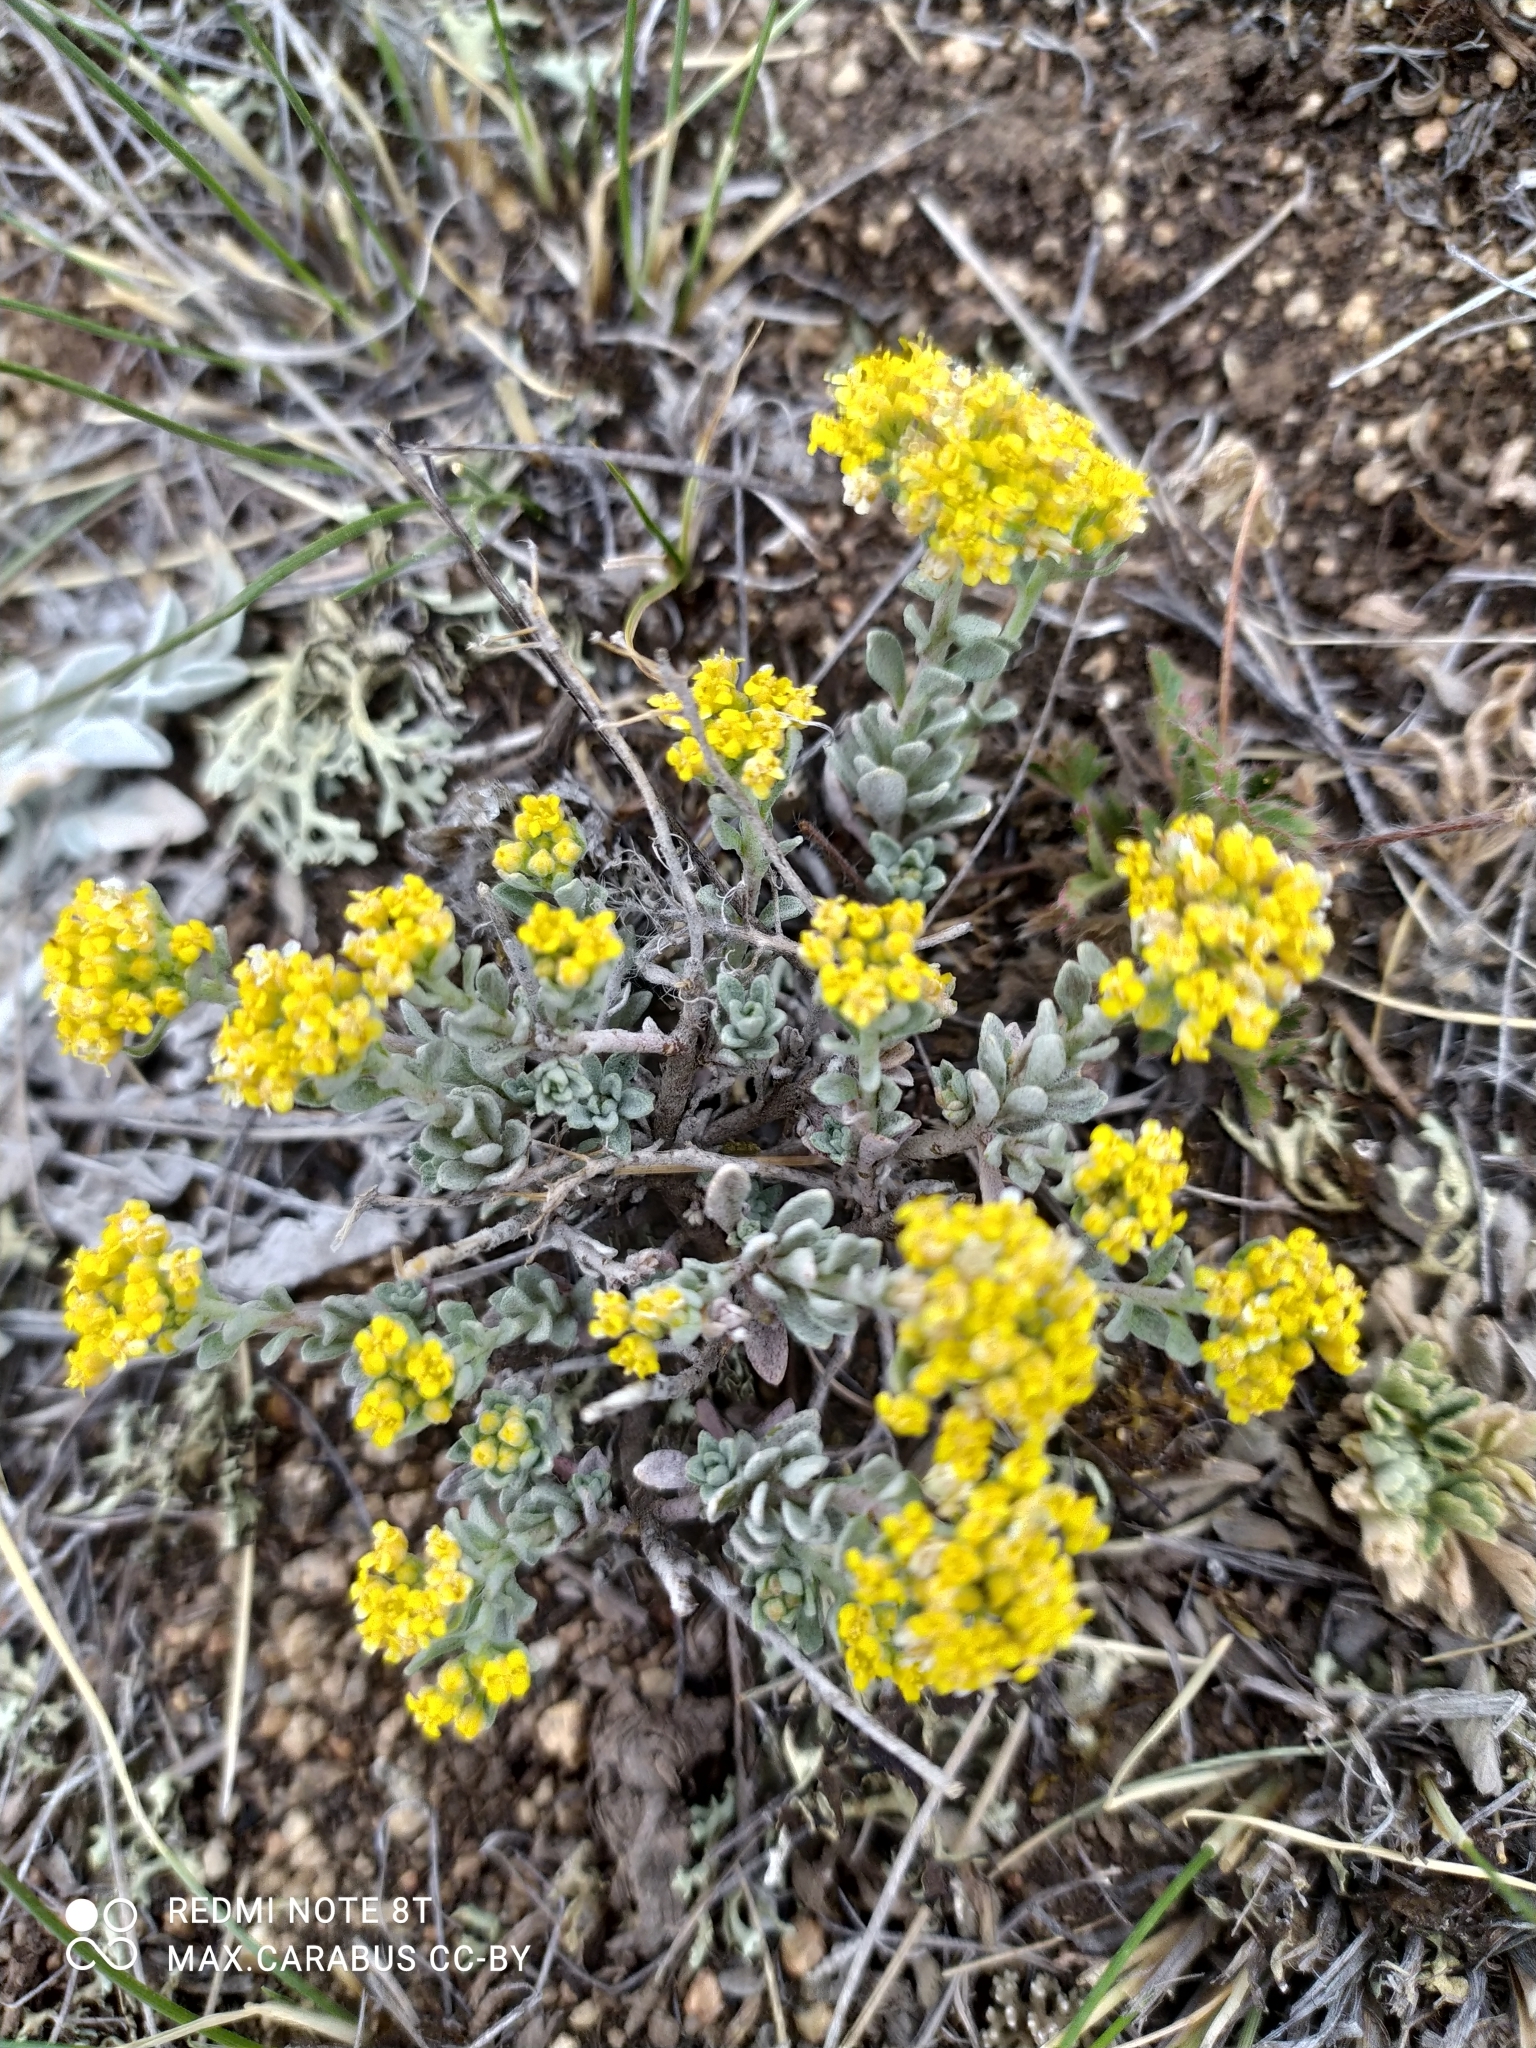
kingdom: Plantae
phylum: Tracheophyta
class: Magnoliopsida
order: Brassicales
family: Brassicaceae
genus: Odontarrhena
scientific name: Odontarrhena tortuosa
